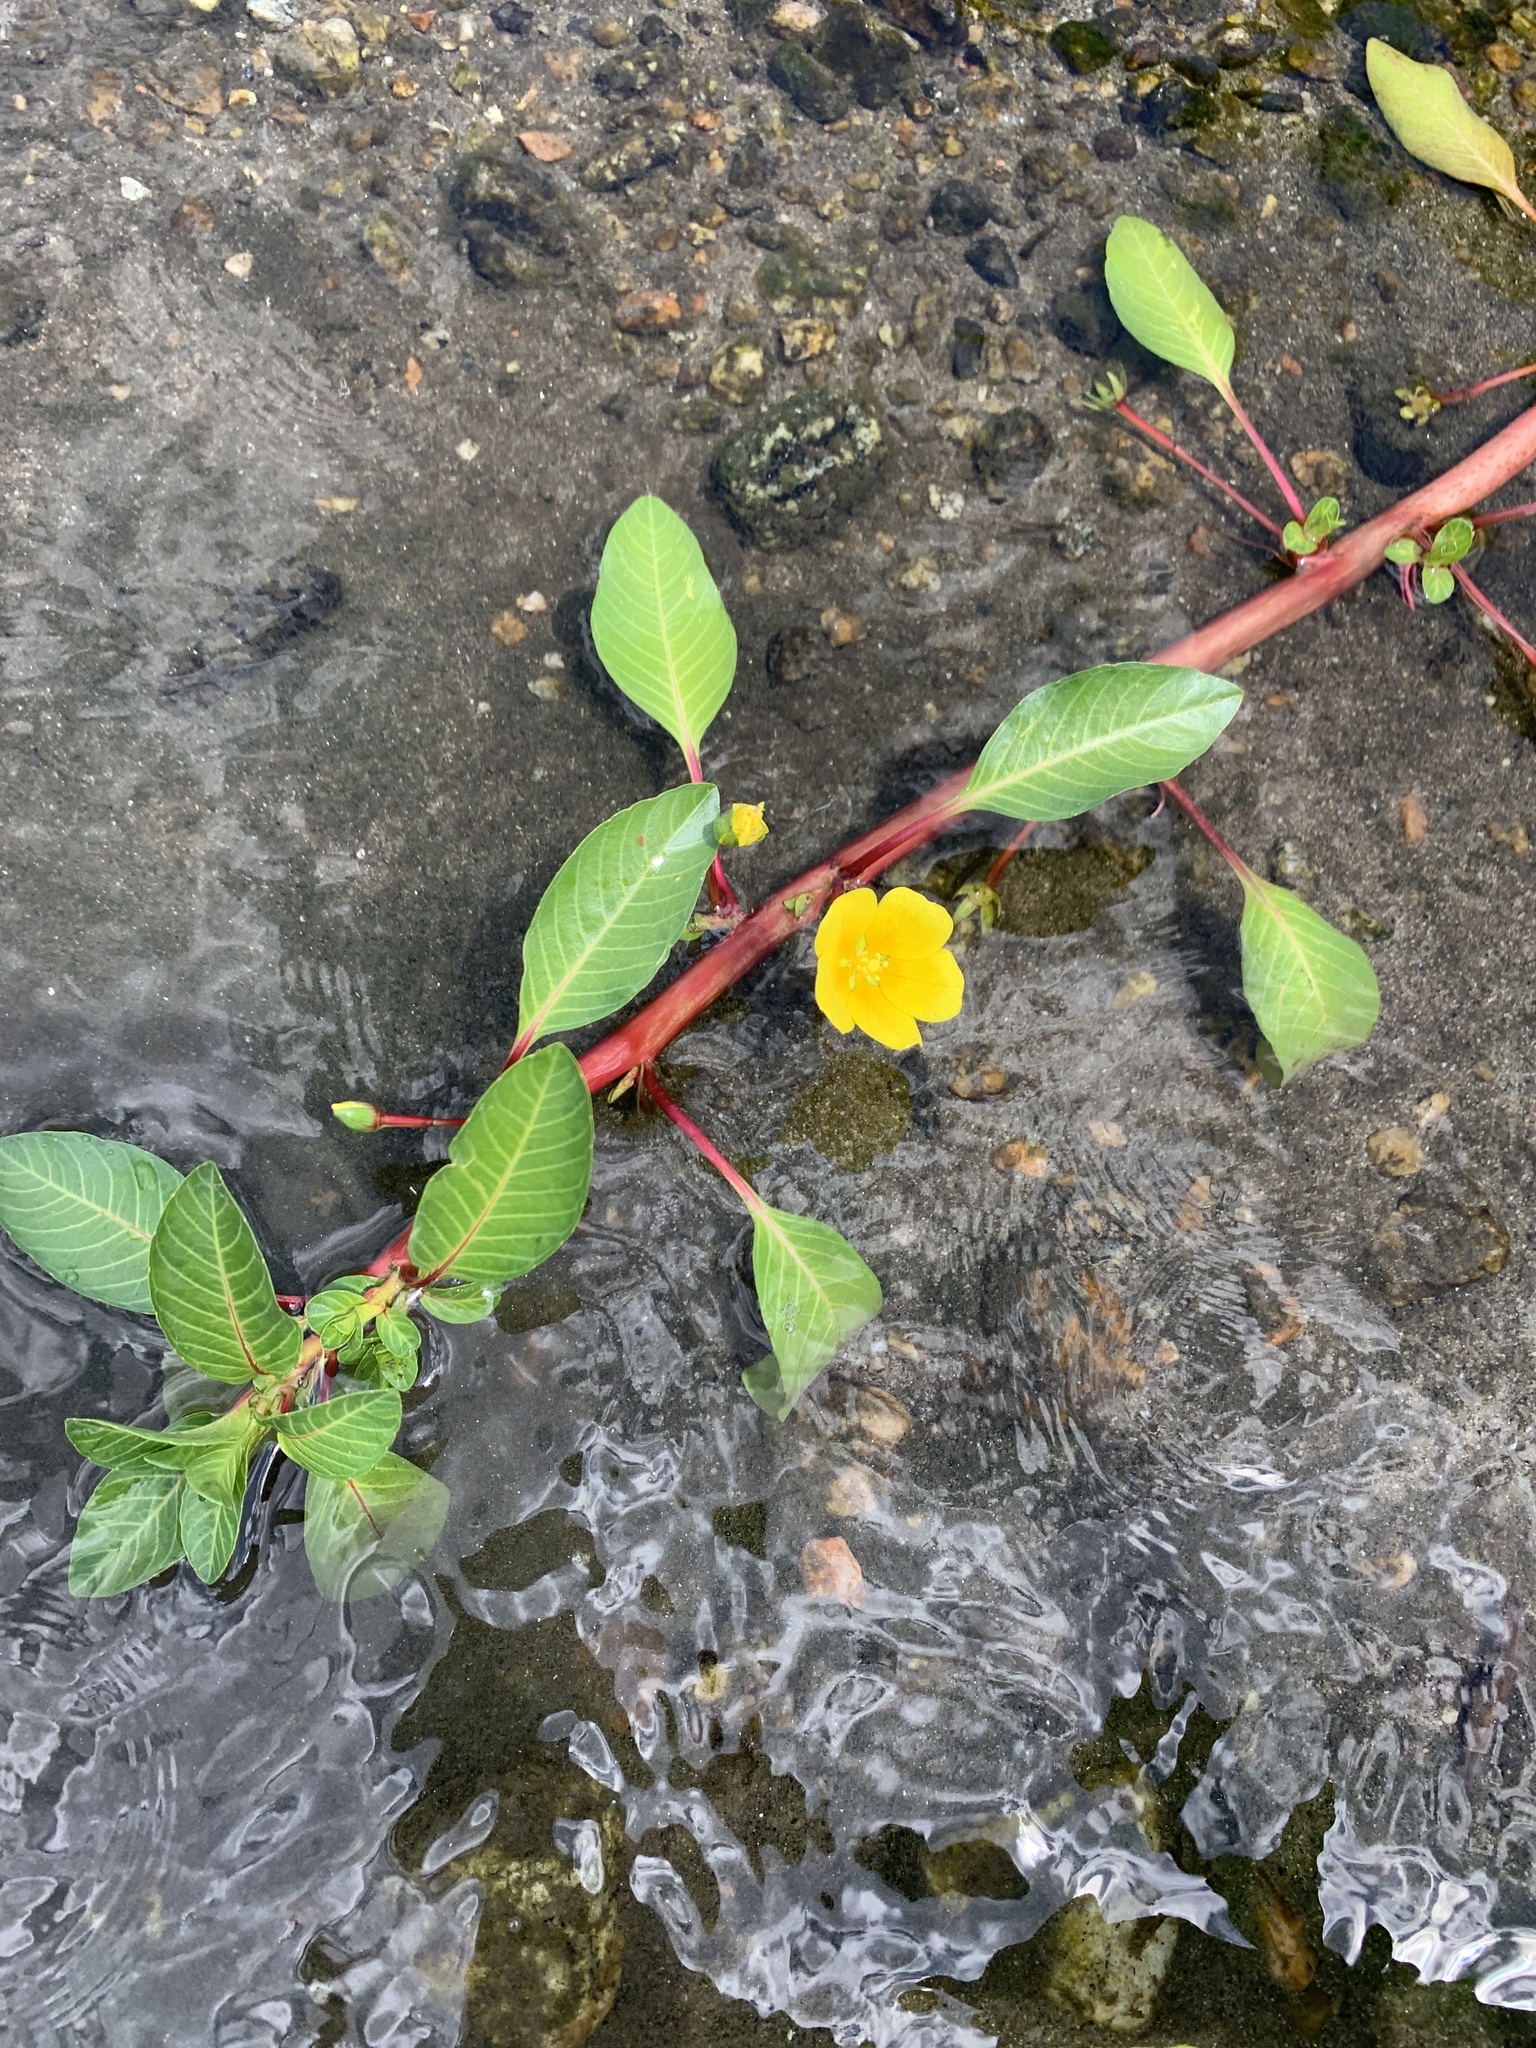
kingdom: Plantae
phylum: Tracheophyta
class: Magnoliopsida
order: Myrtales
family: Onagraceae
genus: Ludwigia
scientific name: Ludwigia peploides
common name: Floating primrose-willow
